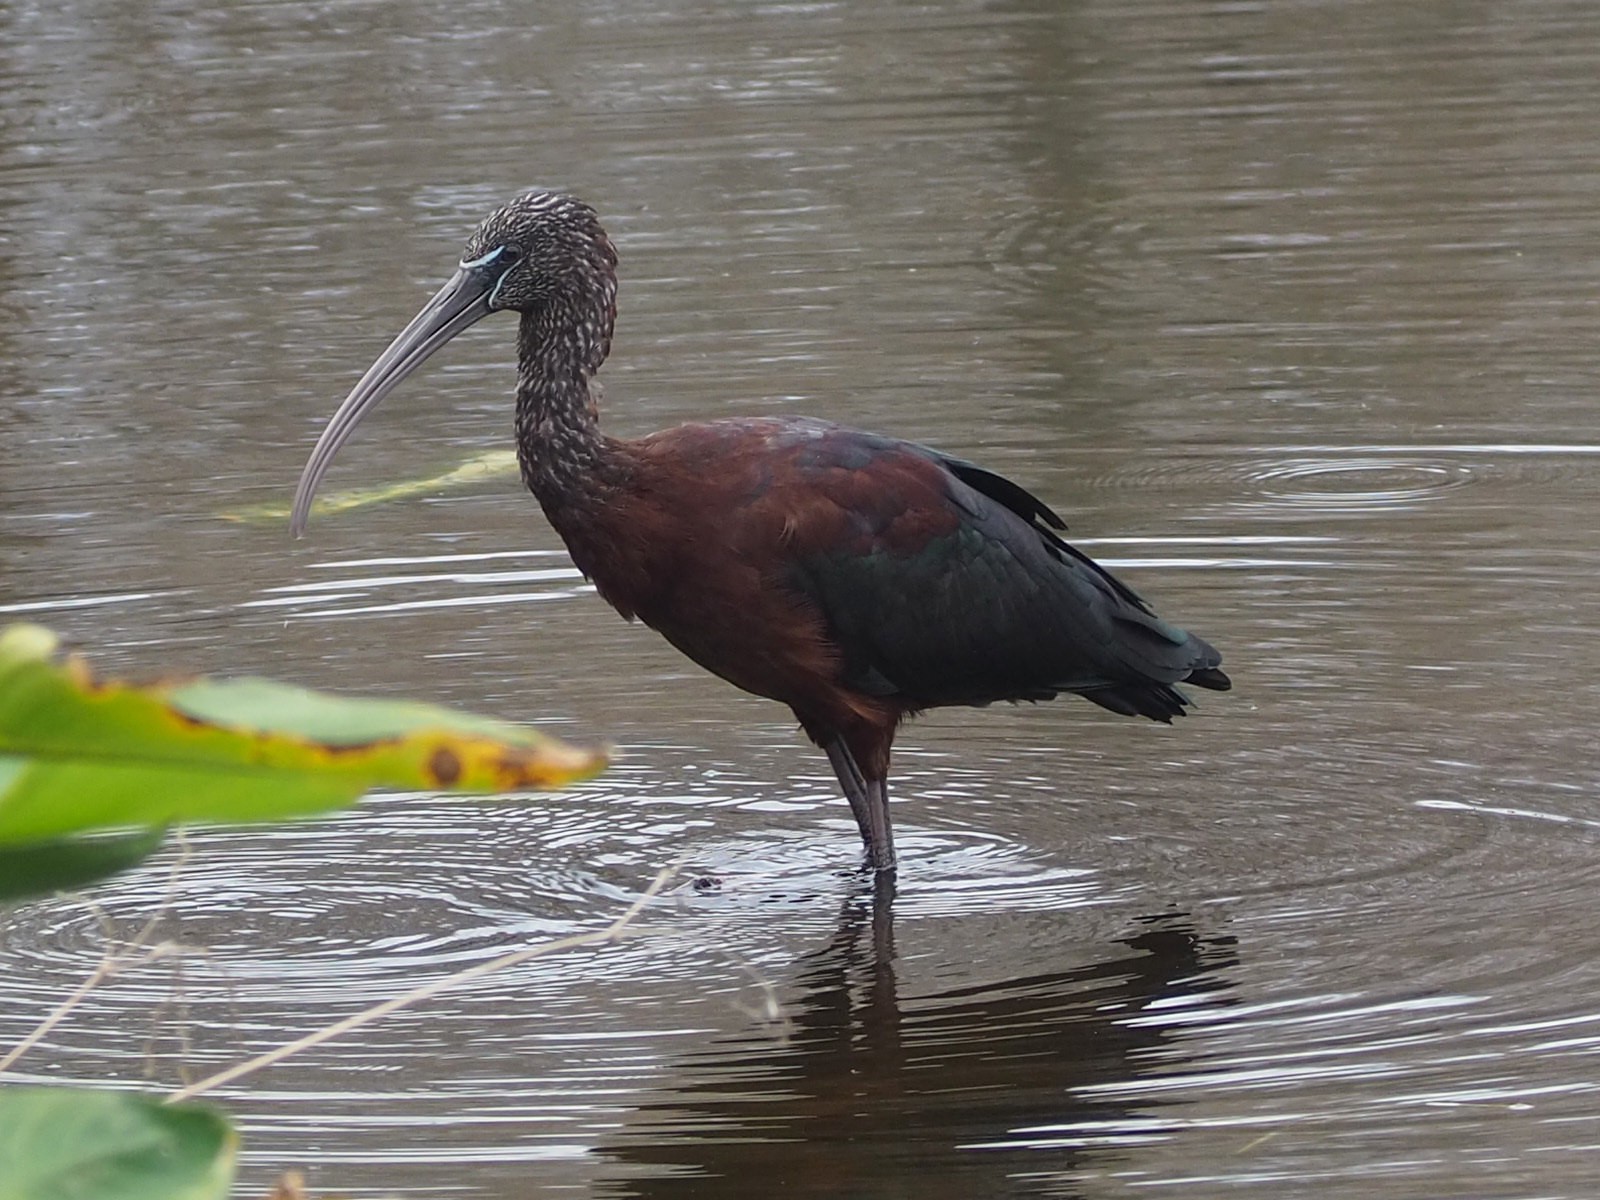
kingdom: Animalia
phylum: Chordata
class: Aves
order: Pelecaniformes
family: Threskiornithidae
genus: Plegadis
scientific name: Plegadis falcinellus
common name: Glossy ibis
